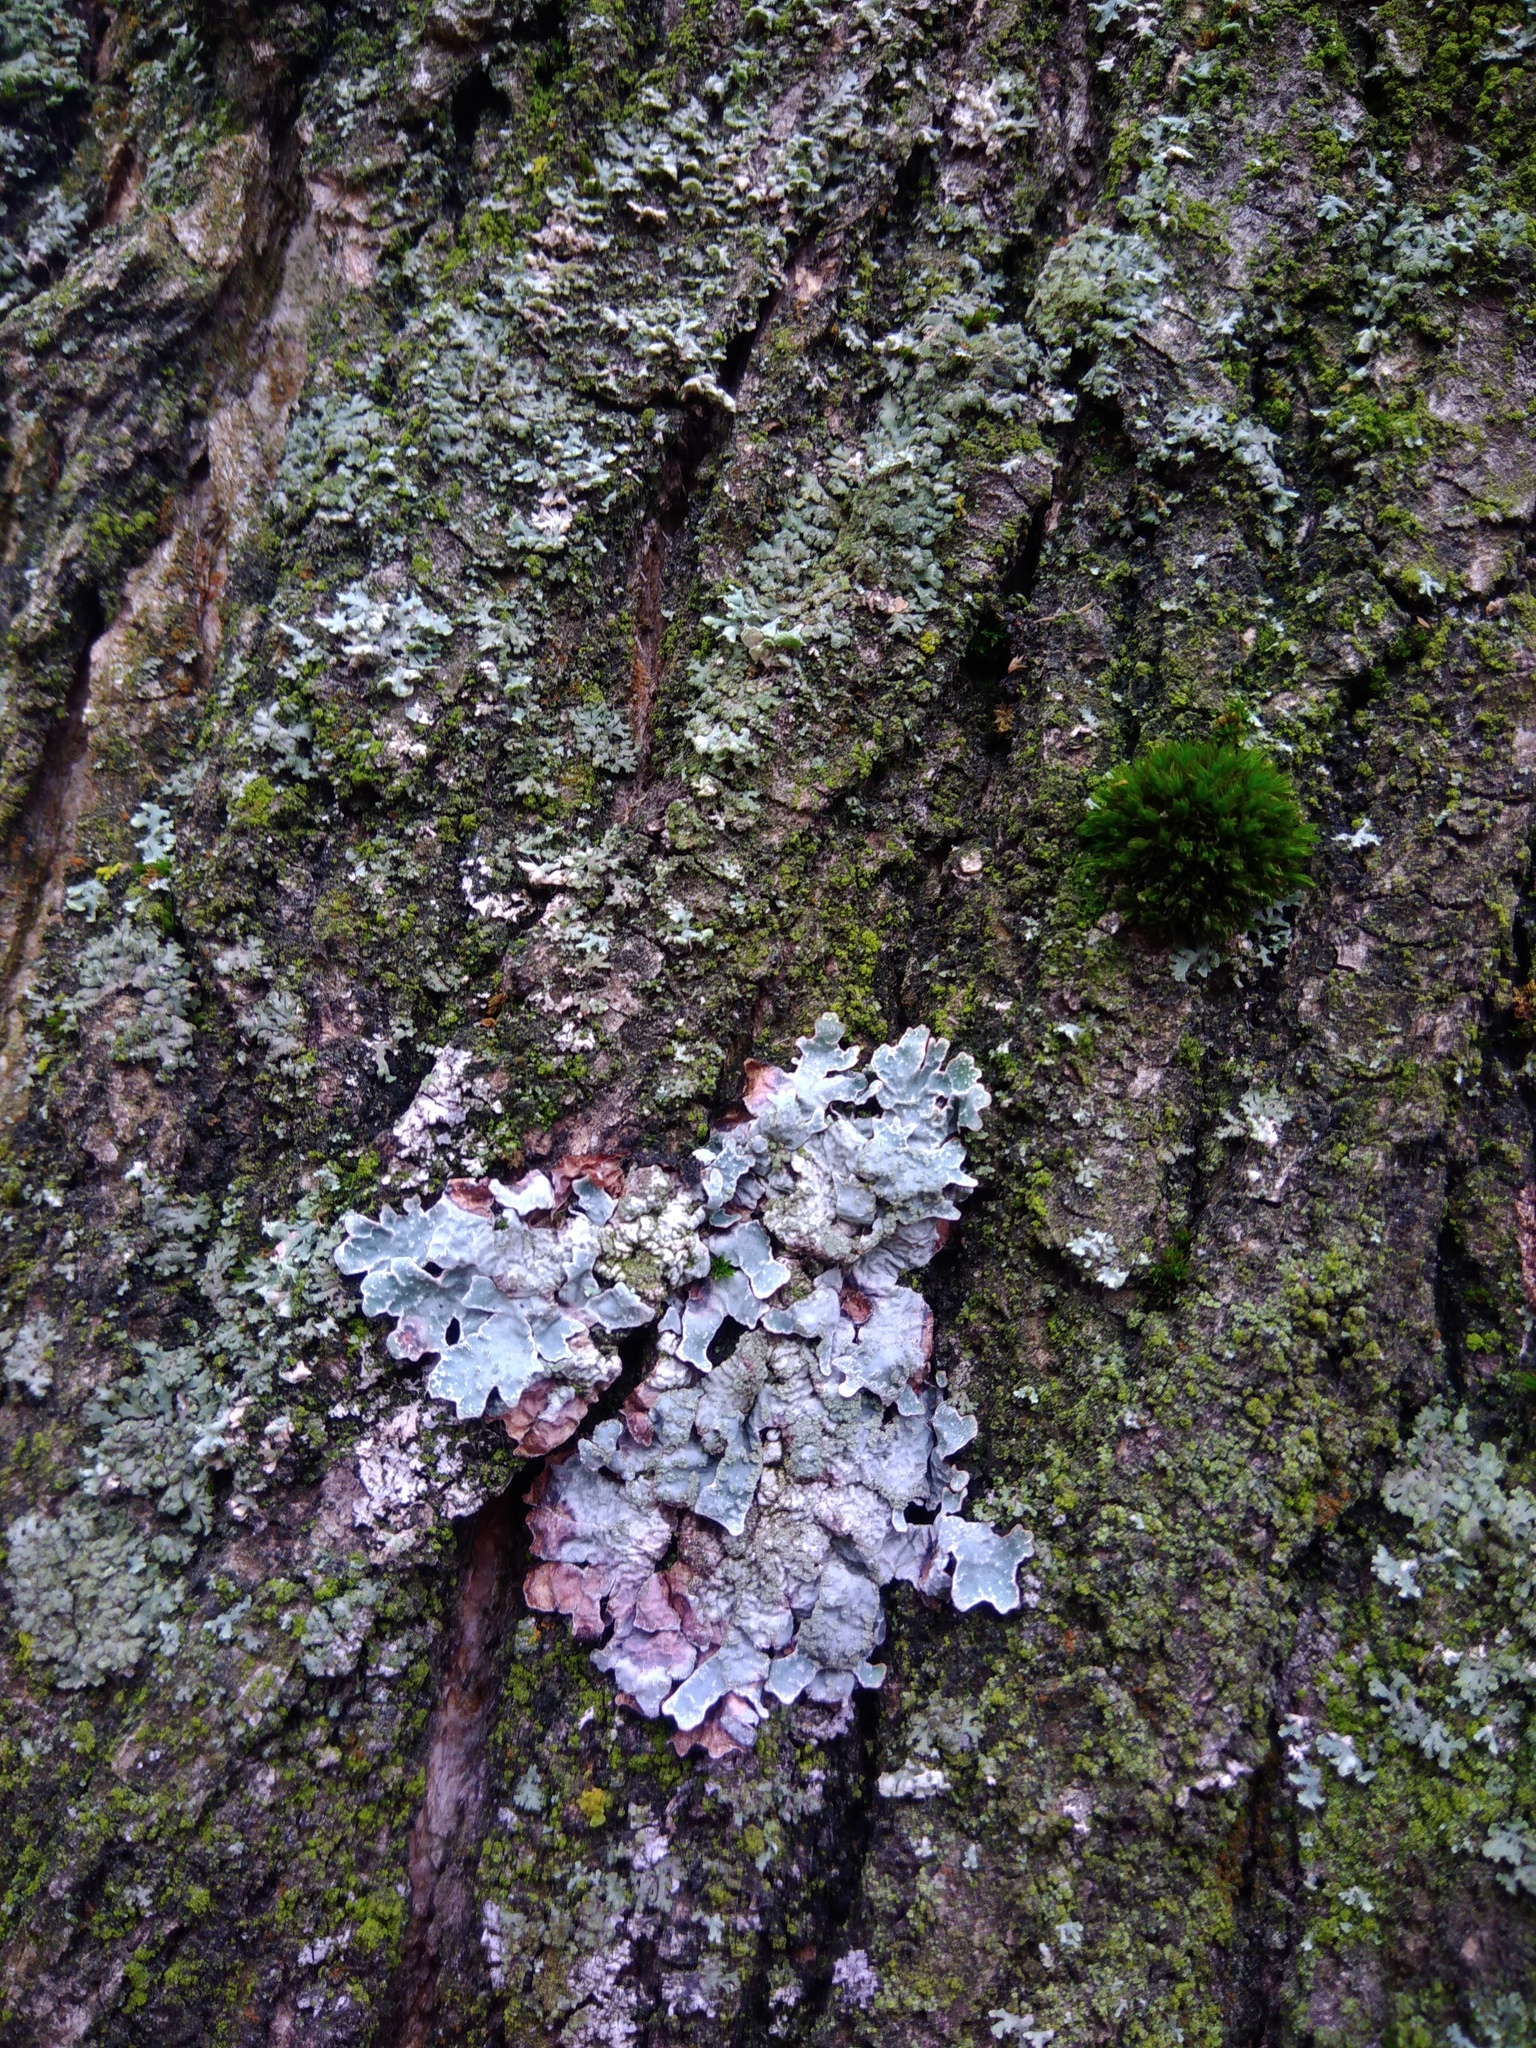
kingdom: Fungi
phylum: Ascomycota
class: Lecanoromycetes
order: Lecanorales
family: Parmeliaceae
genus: Parmelia
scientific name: Parmelia sulcata
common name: Netted shield lichen
